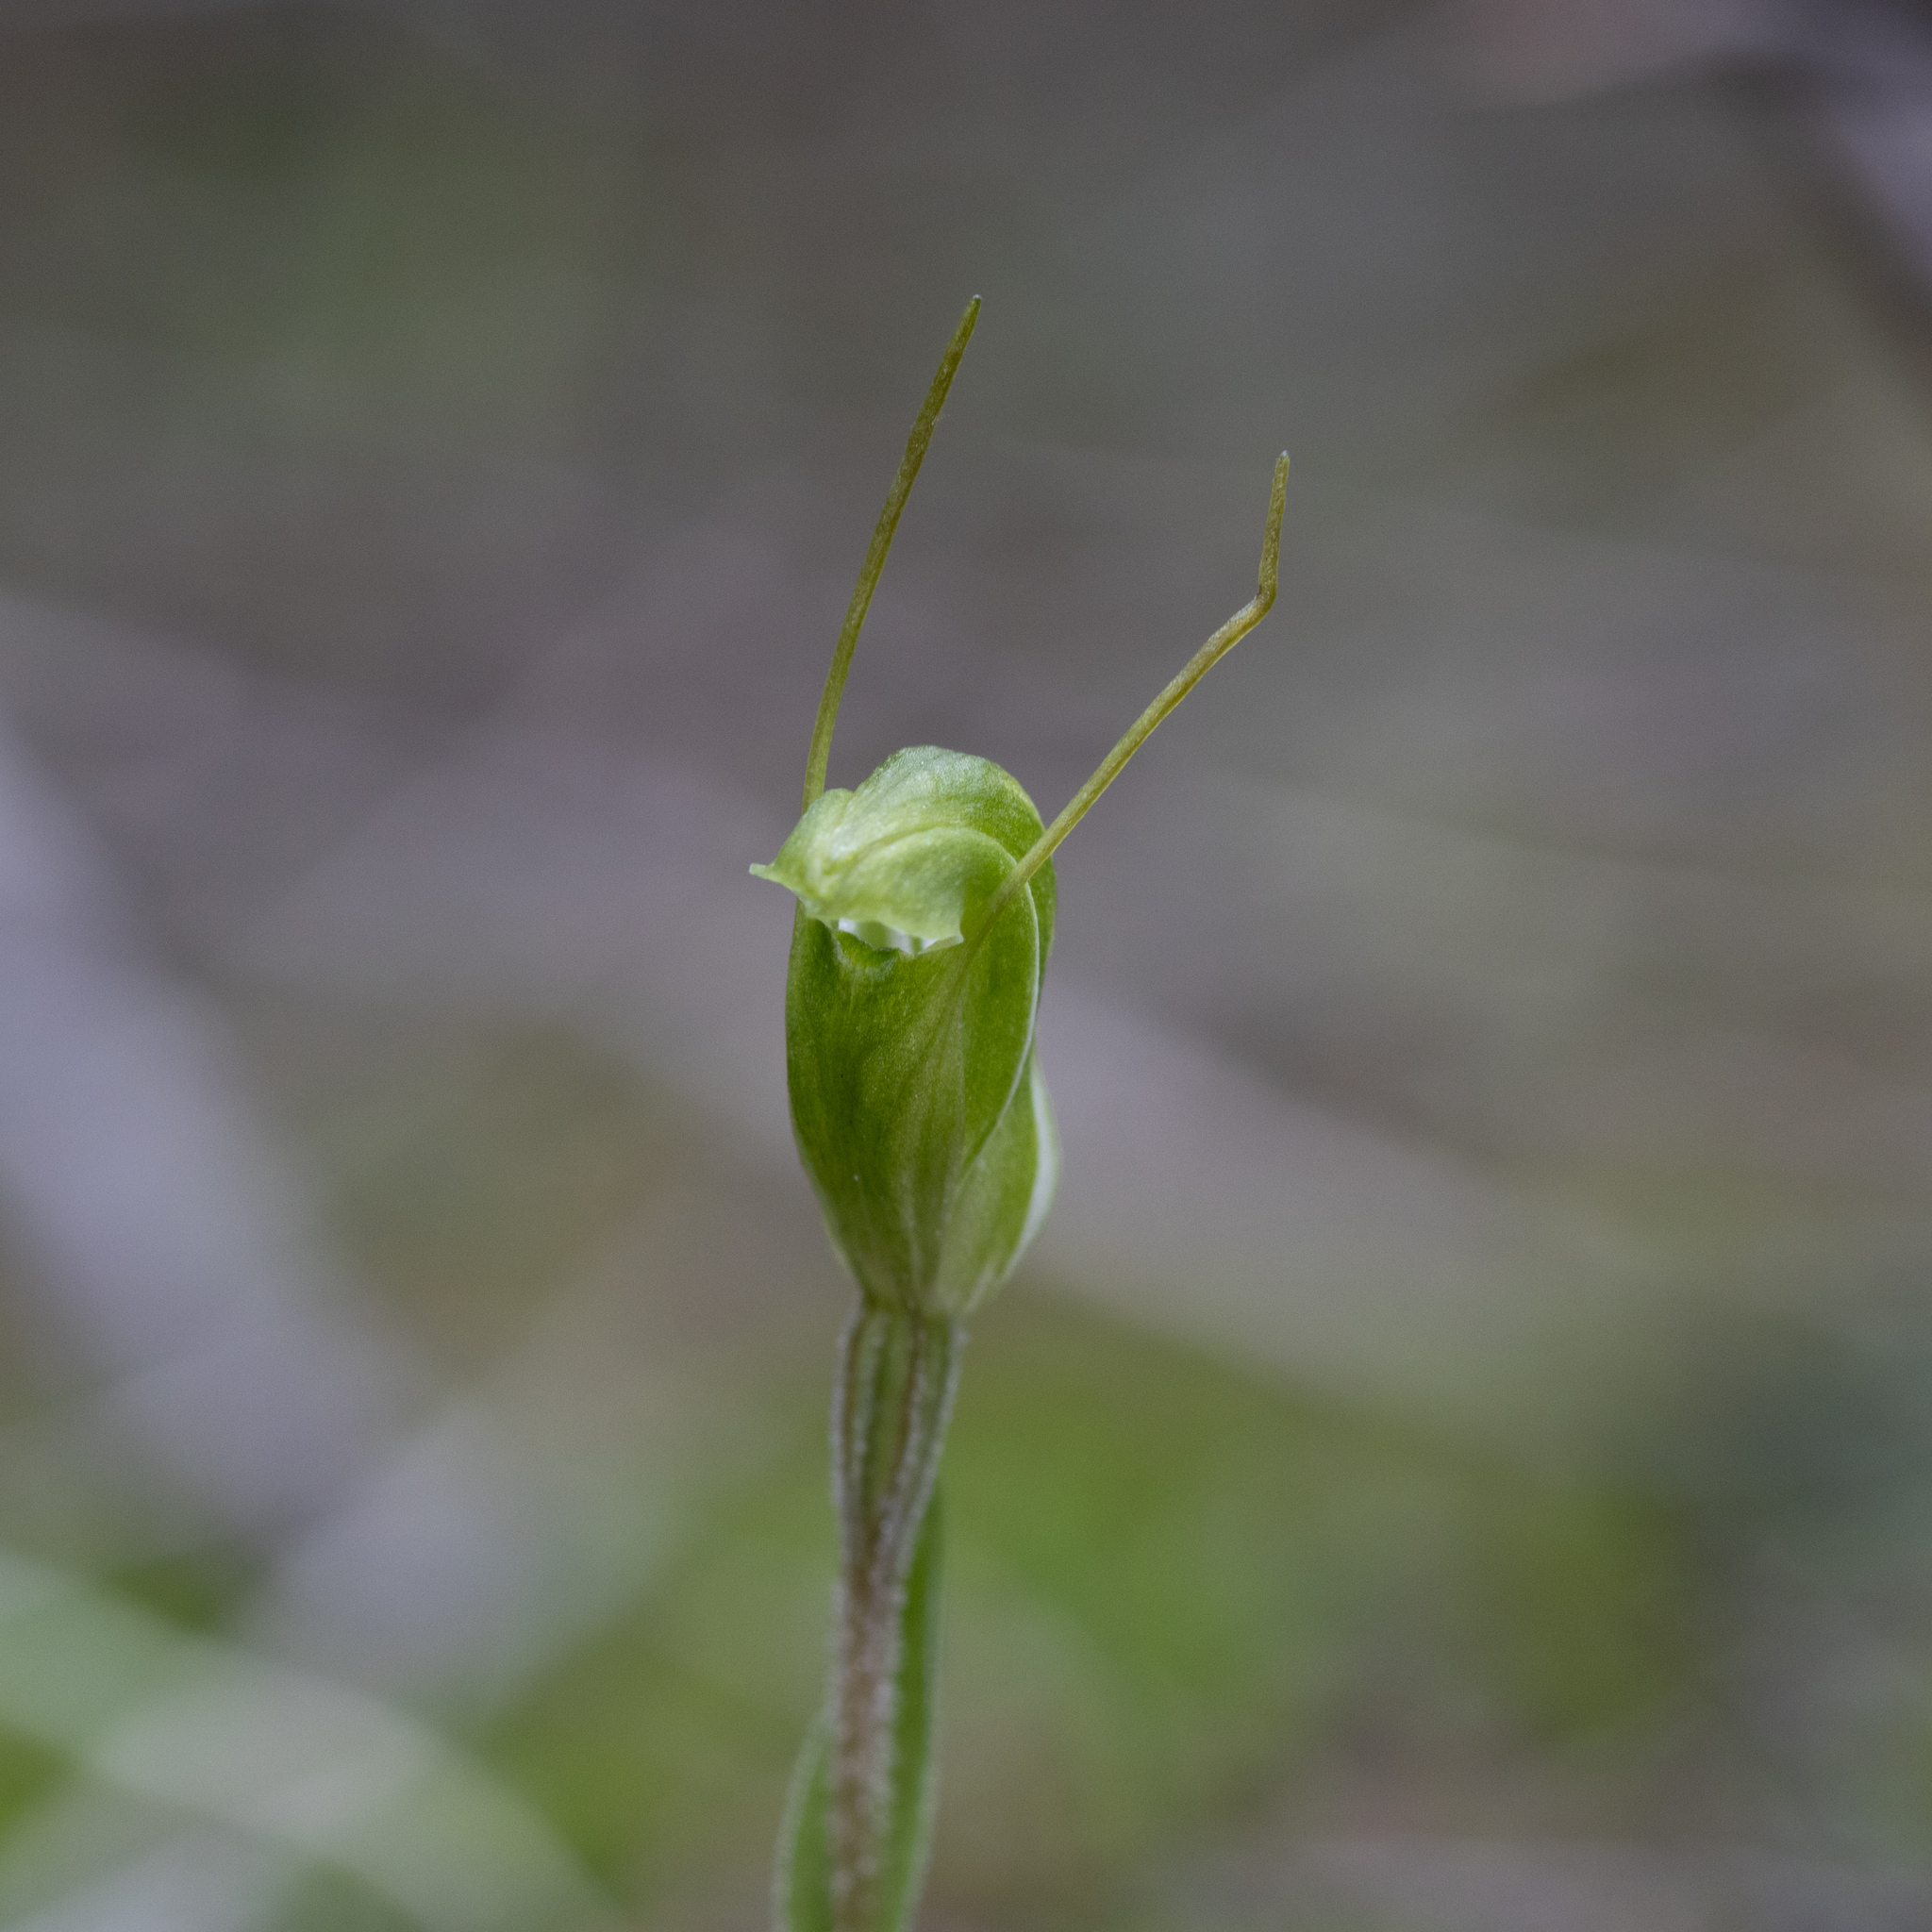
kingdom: Plantae
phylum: Tracheophyta
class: Liliopsida
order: Asparagales
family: Orchidaceae
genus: Pterostylis
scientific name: Pterostylis nana
